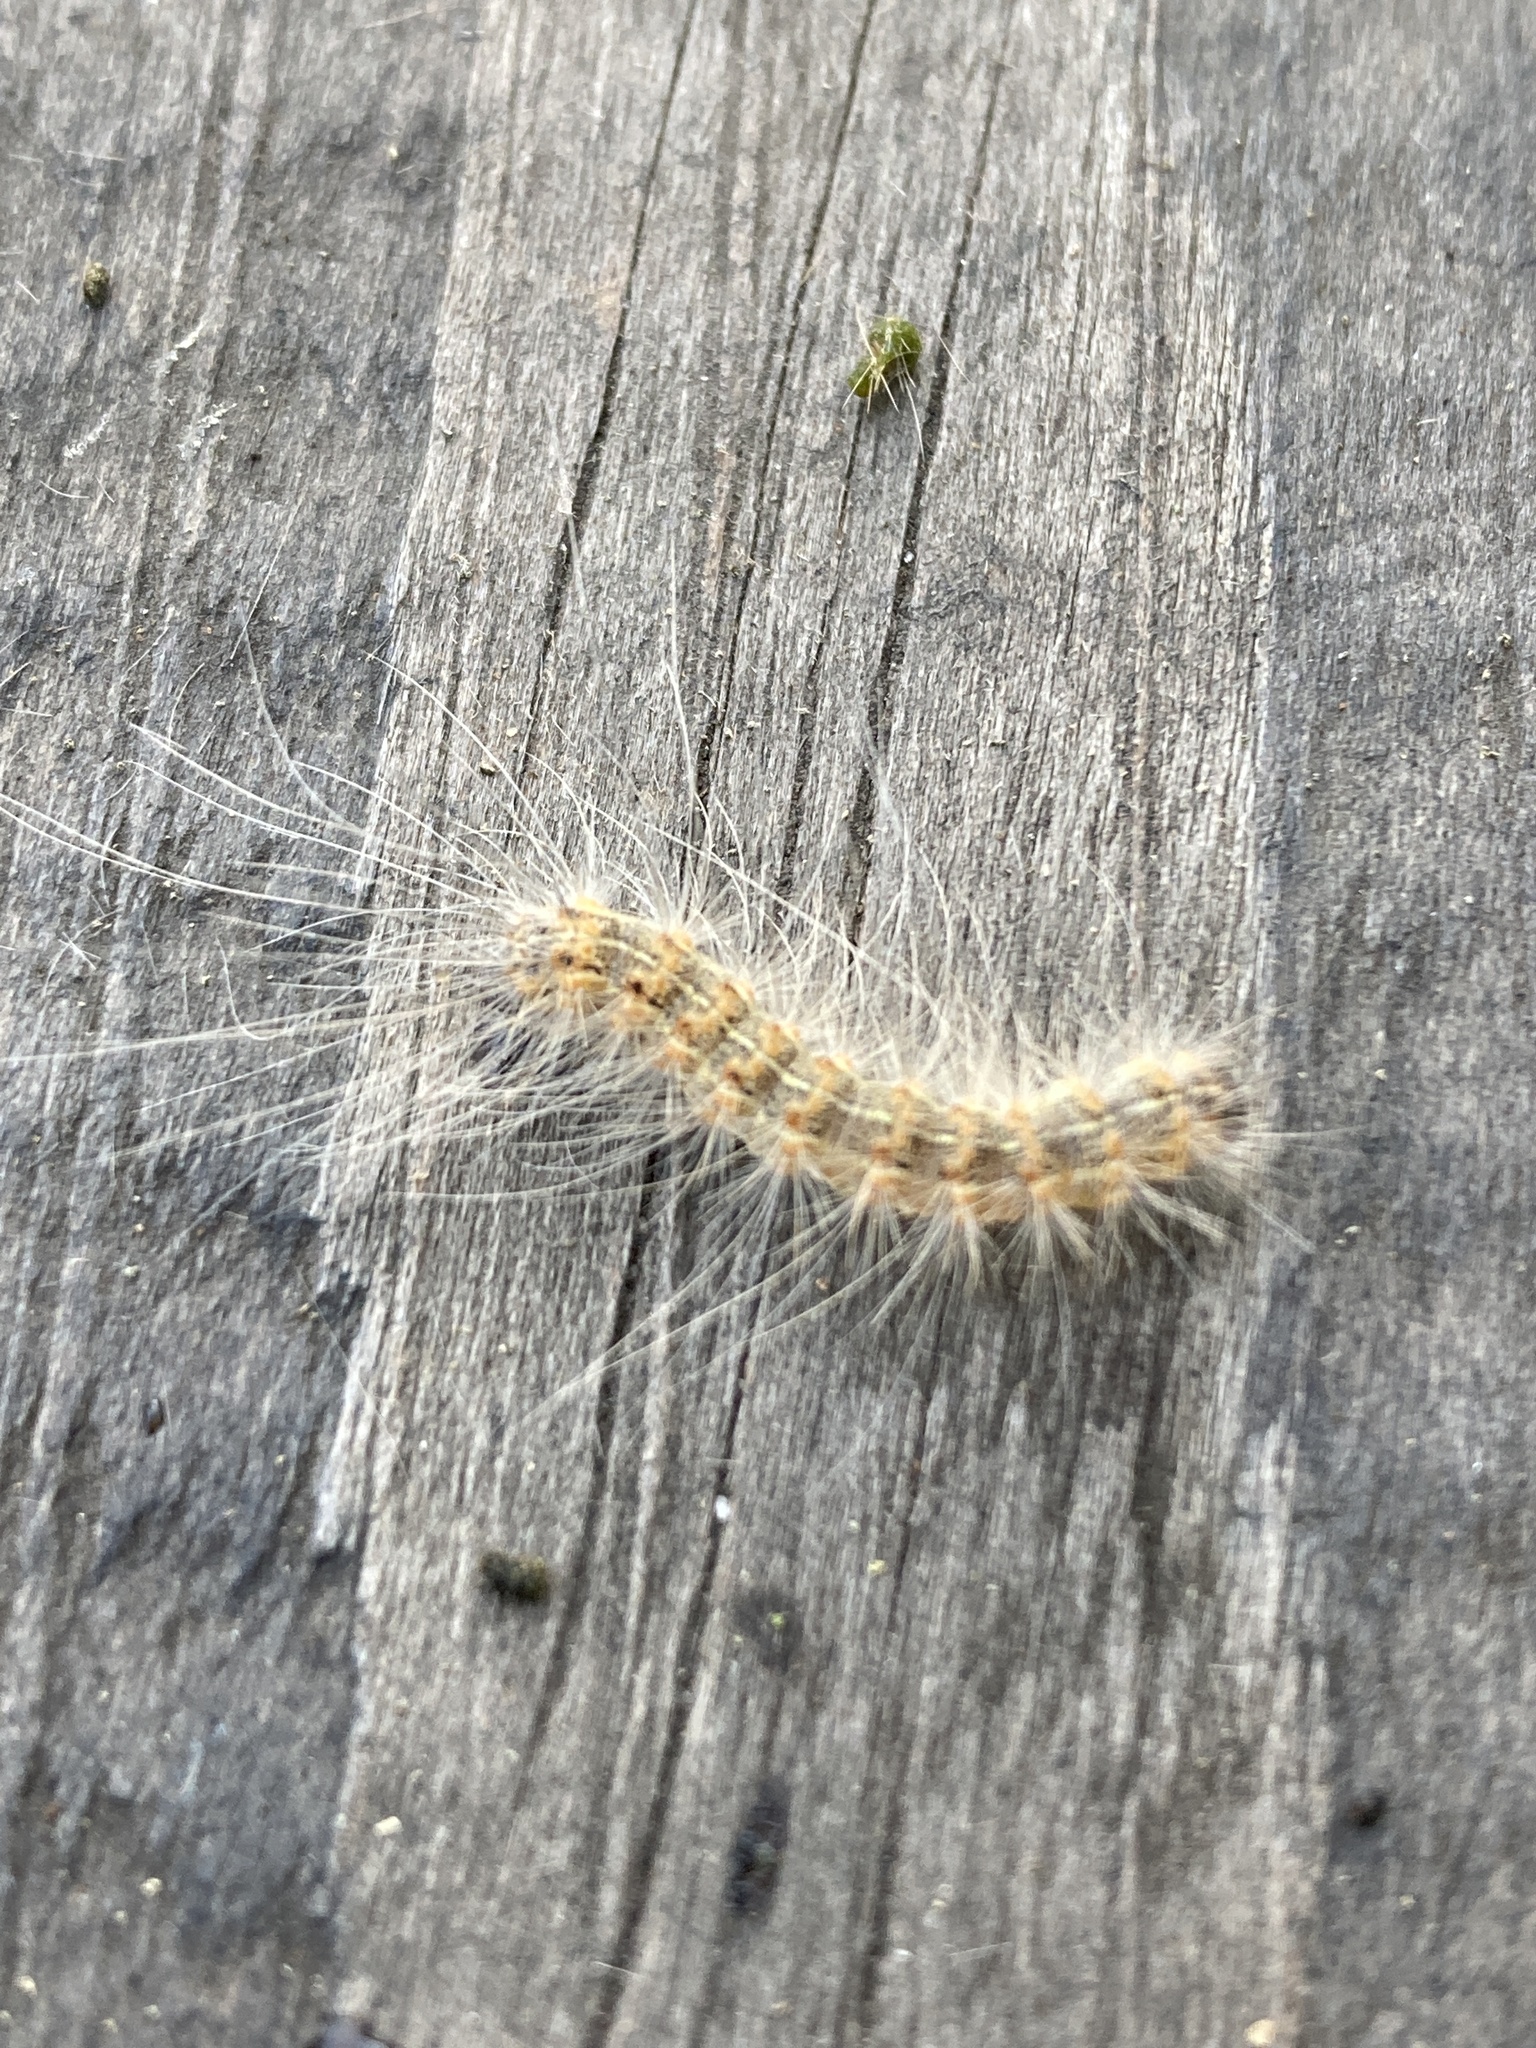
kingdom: Animalia
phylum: Arthropoda
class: Insecta
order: Lepidoptera
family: Erebidae
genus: Hyphantria
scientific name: Hyphantria cunea
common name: American white moth
